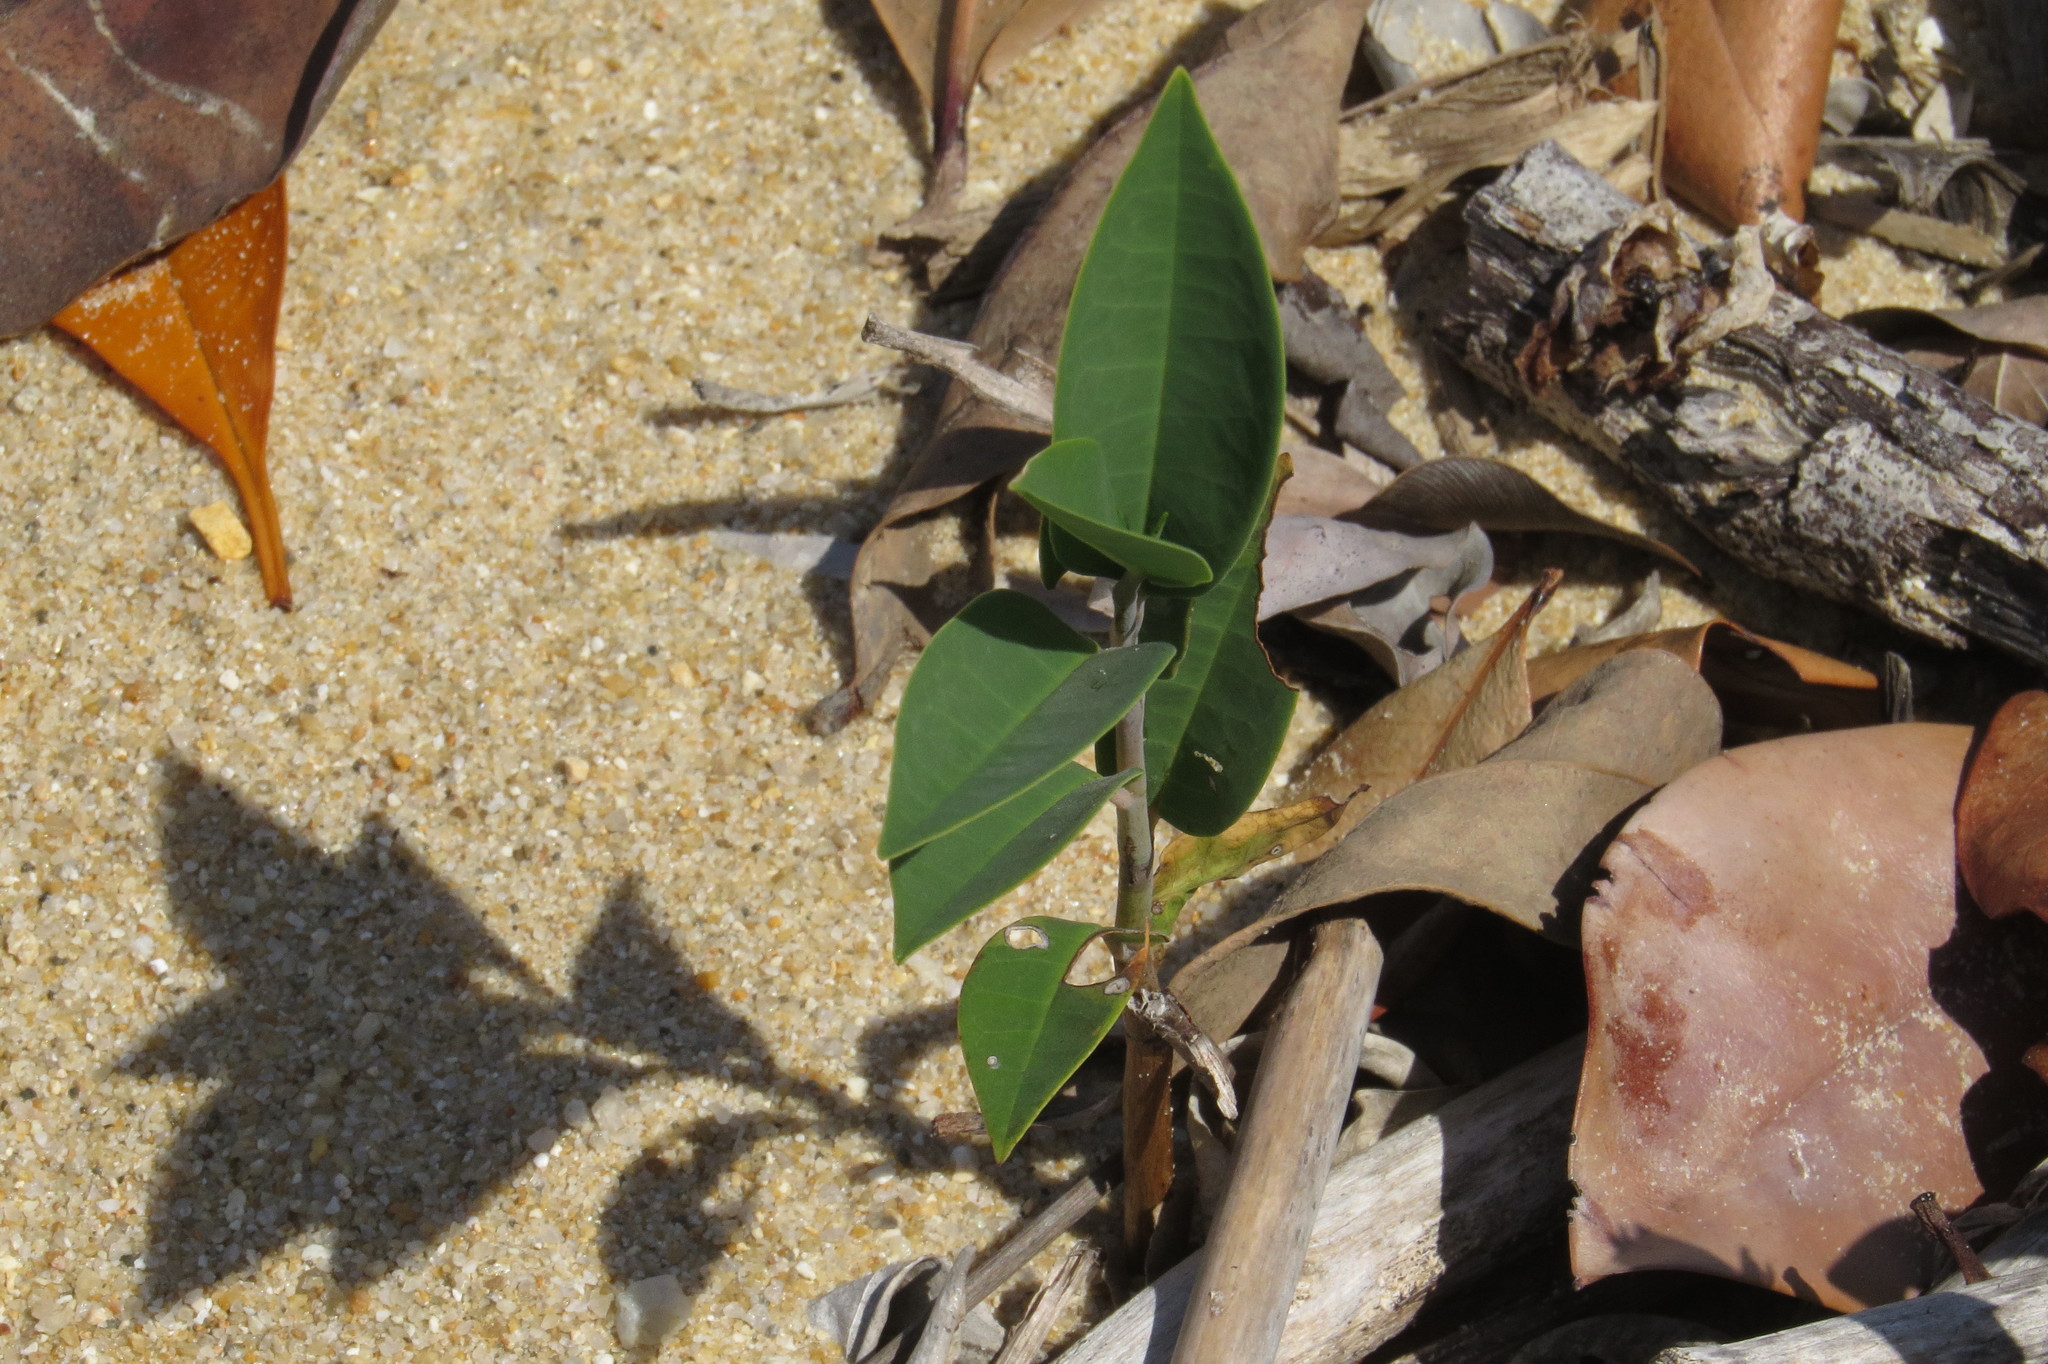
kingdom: Plantae
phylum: Tracheophyta
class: Magnoliopsida
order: Magnoliales
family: Annonaceae
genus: Annona
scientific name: Annona glabra
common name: Monkey apple
